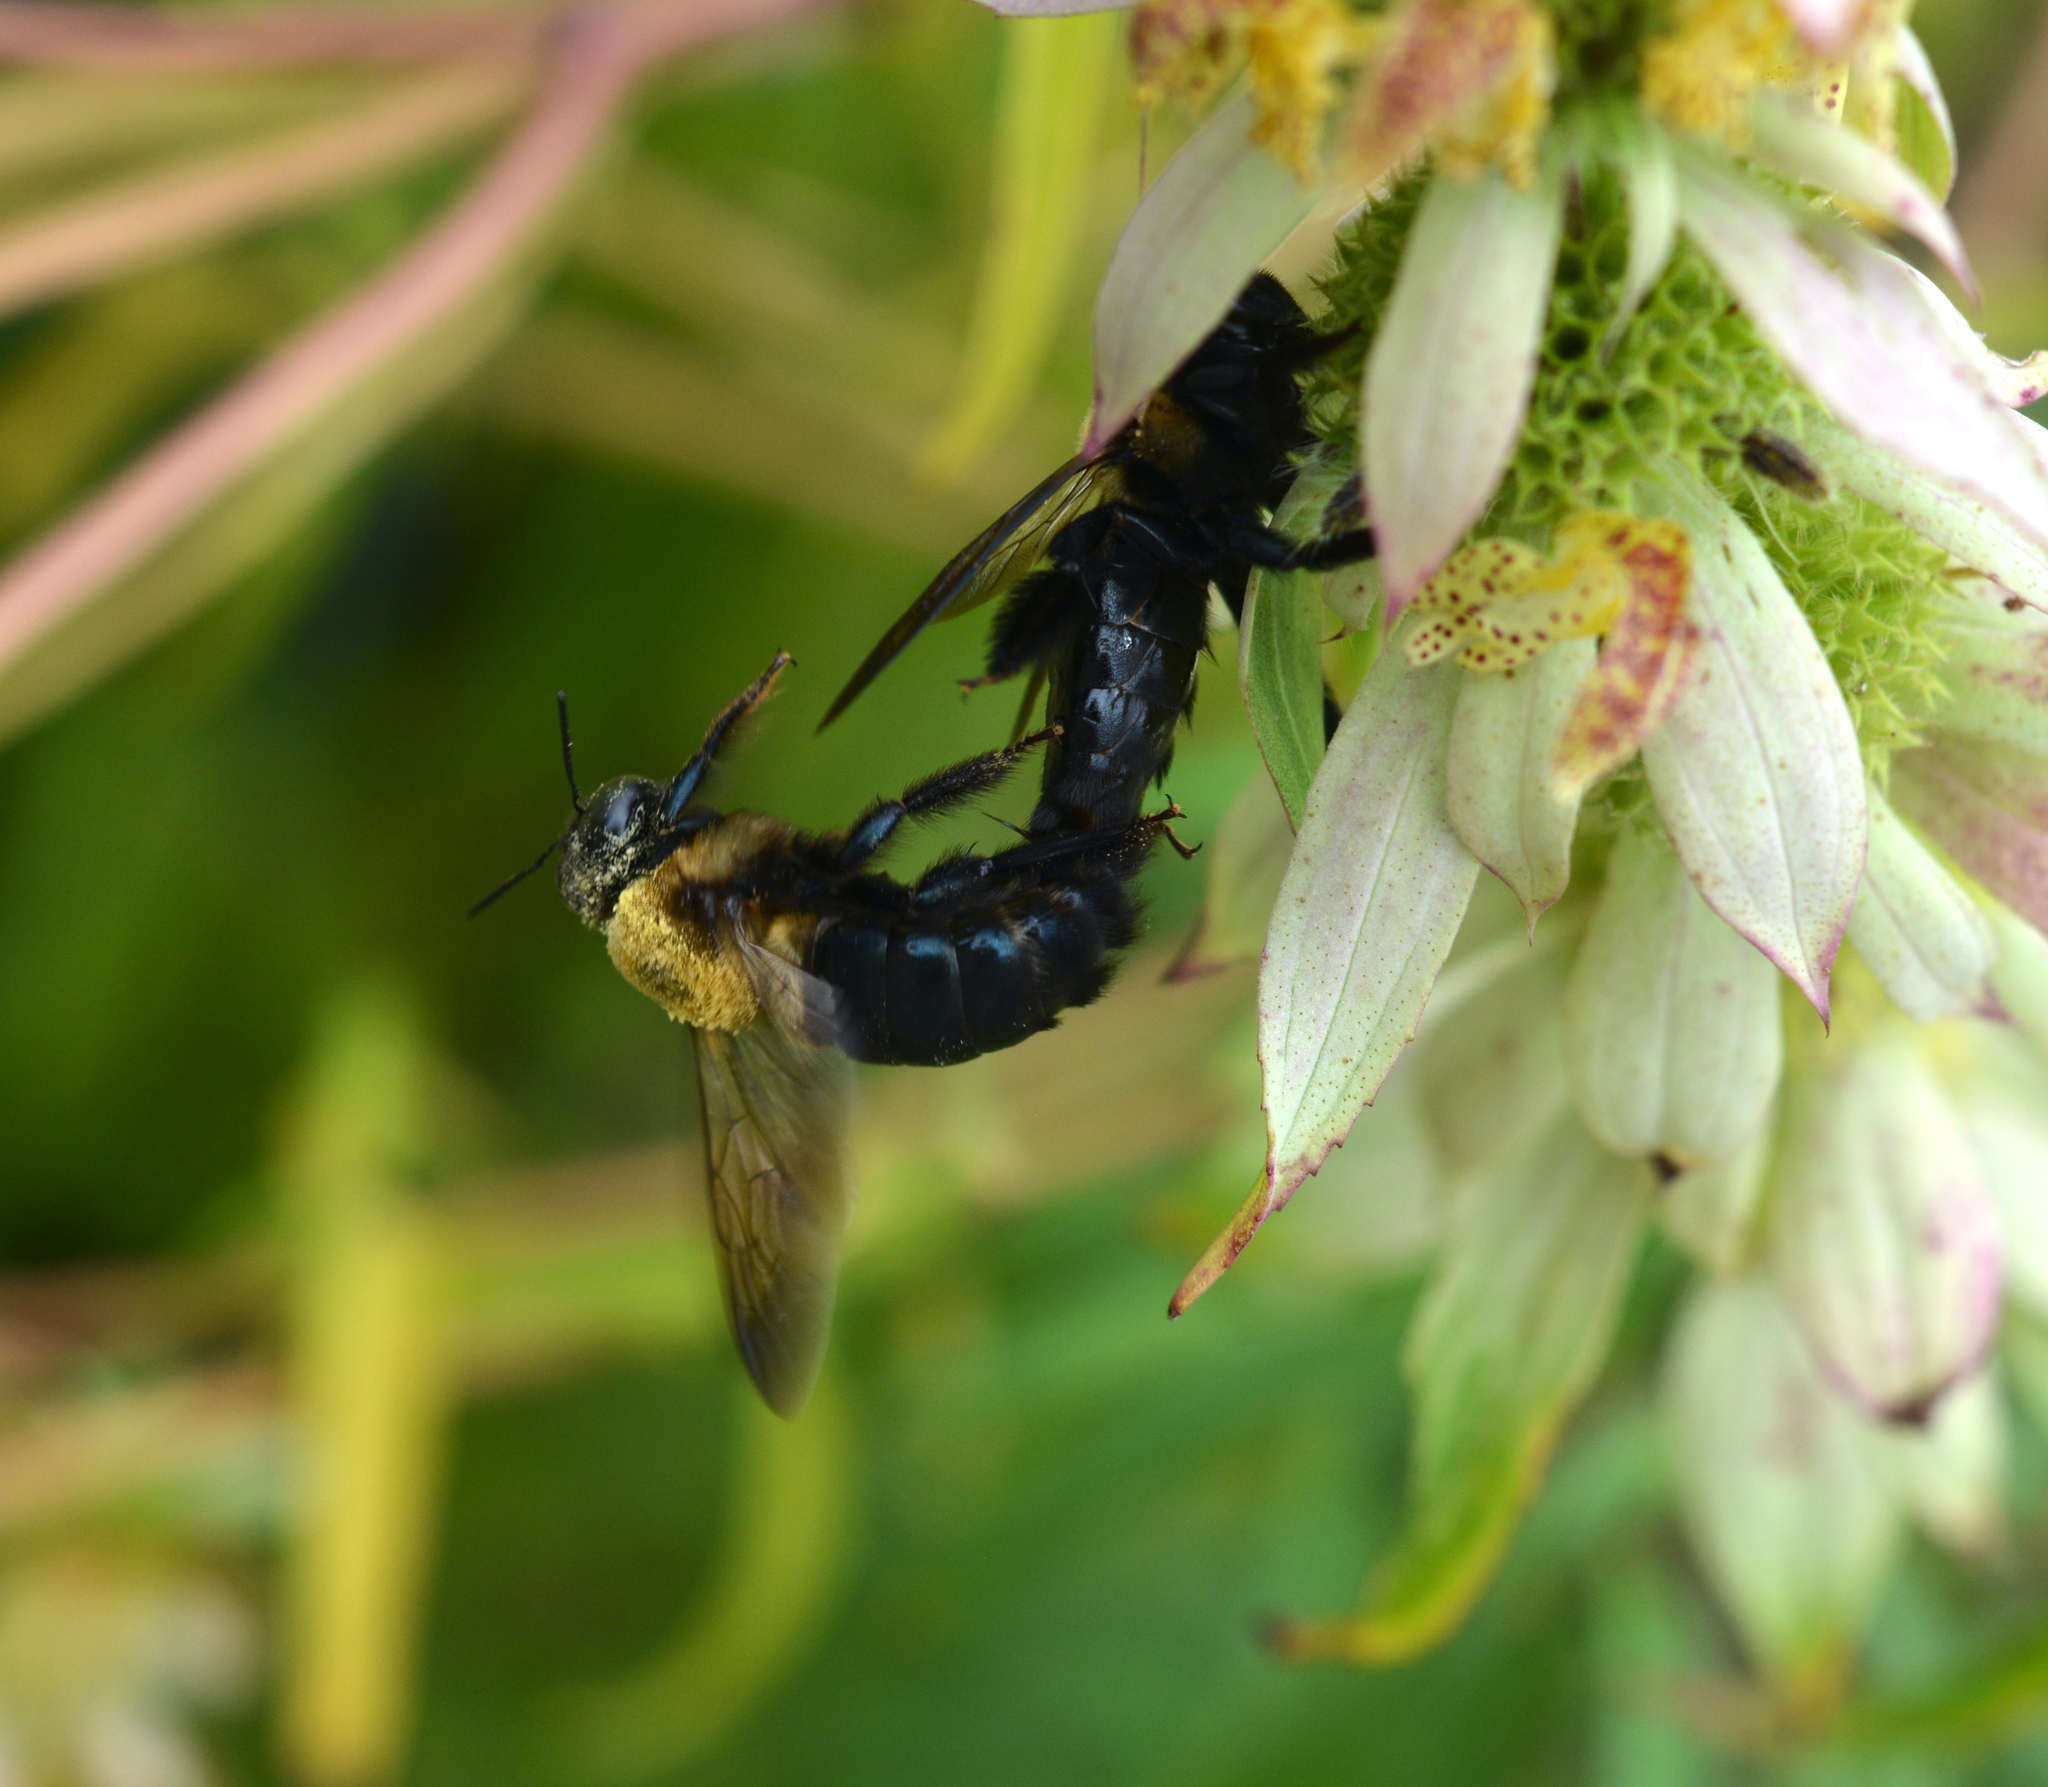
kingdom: Animalia
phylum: Arthropoda
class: Insecta
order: Hymenoptera
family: Apidae
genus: Xylocopa
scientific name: Xylocopa virginica
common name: Carpenter bee
